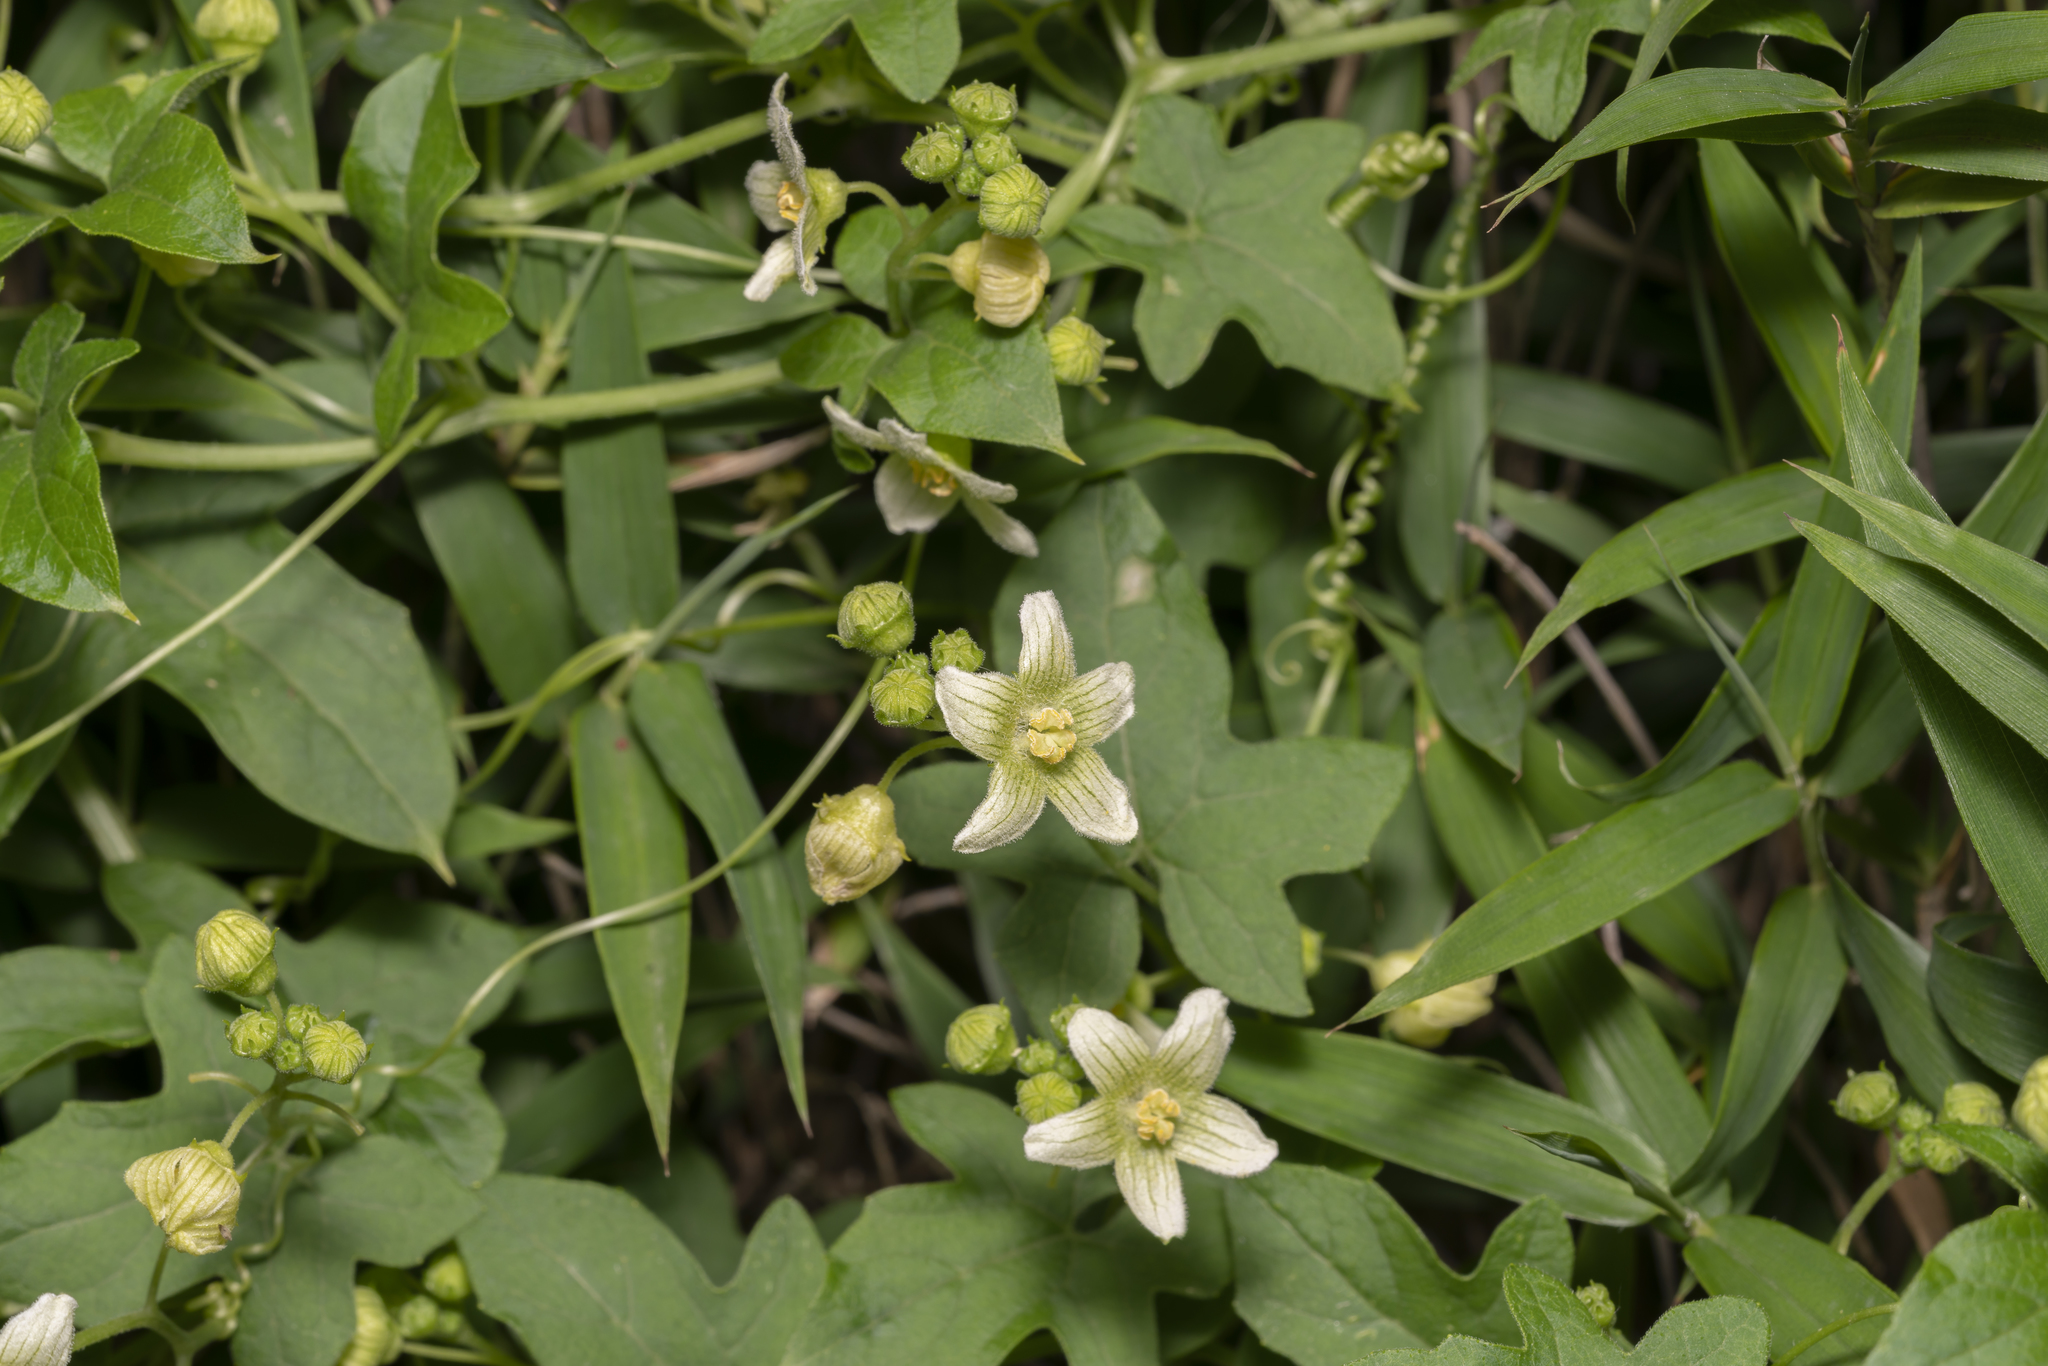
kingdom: Plantae
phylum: Tracheophyta
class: Magnoliopsida
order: Cucurbitales
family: Cucurbitaceae
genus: Bryonia
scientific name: Bryonia dioica
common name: White bryony
